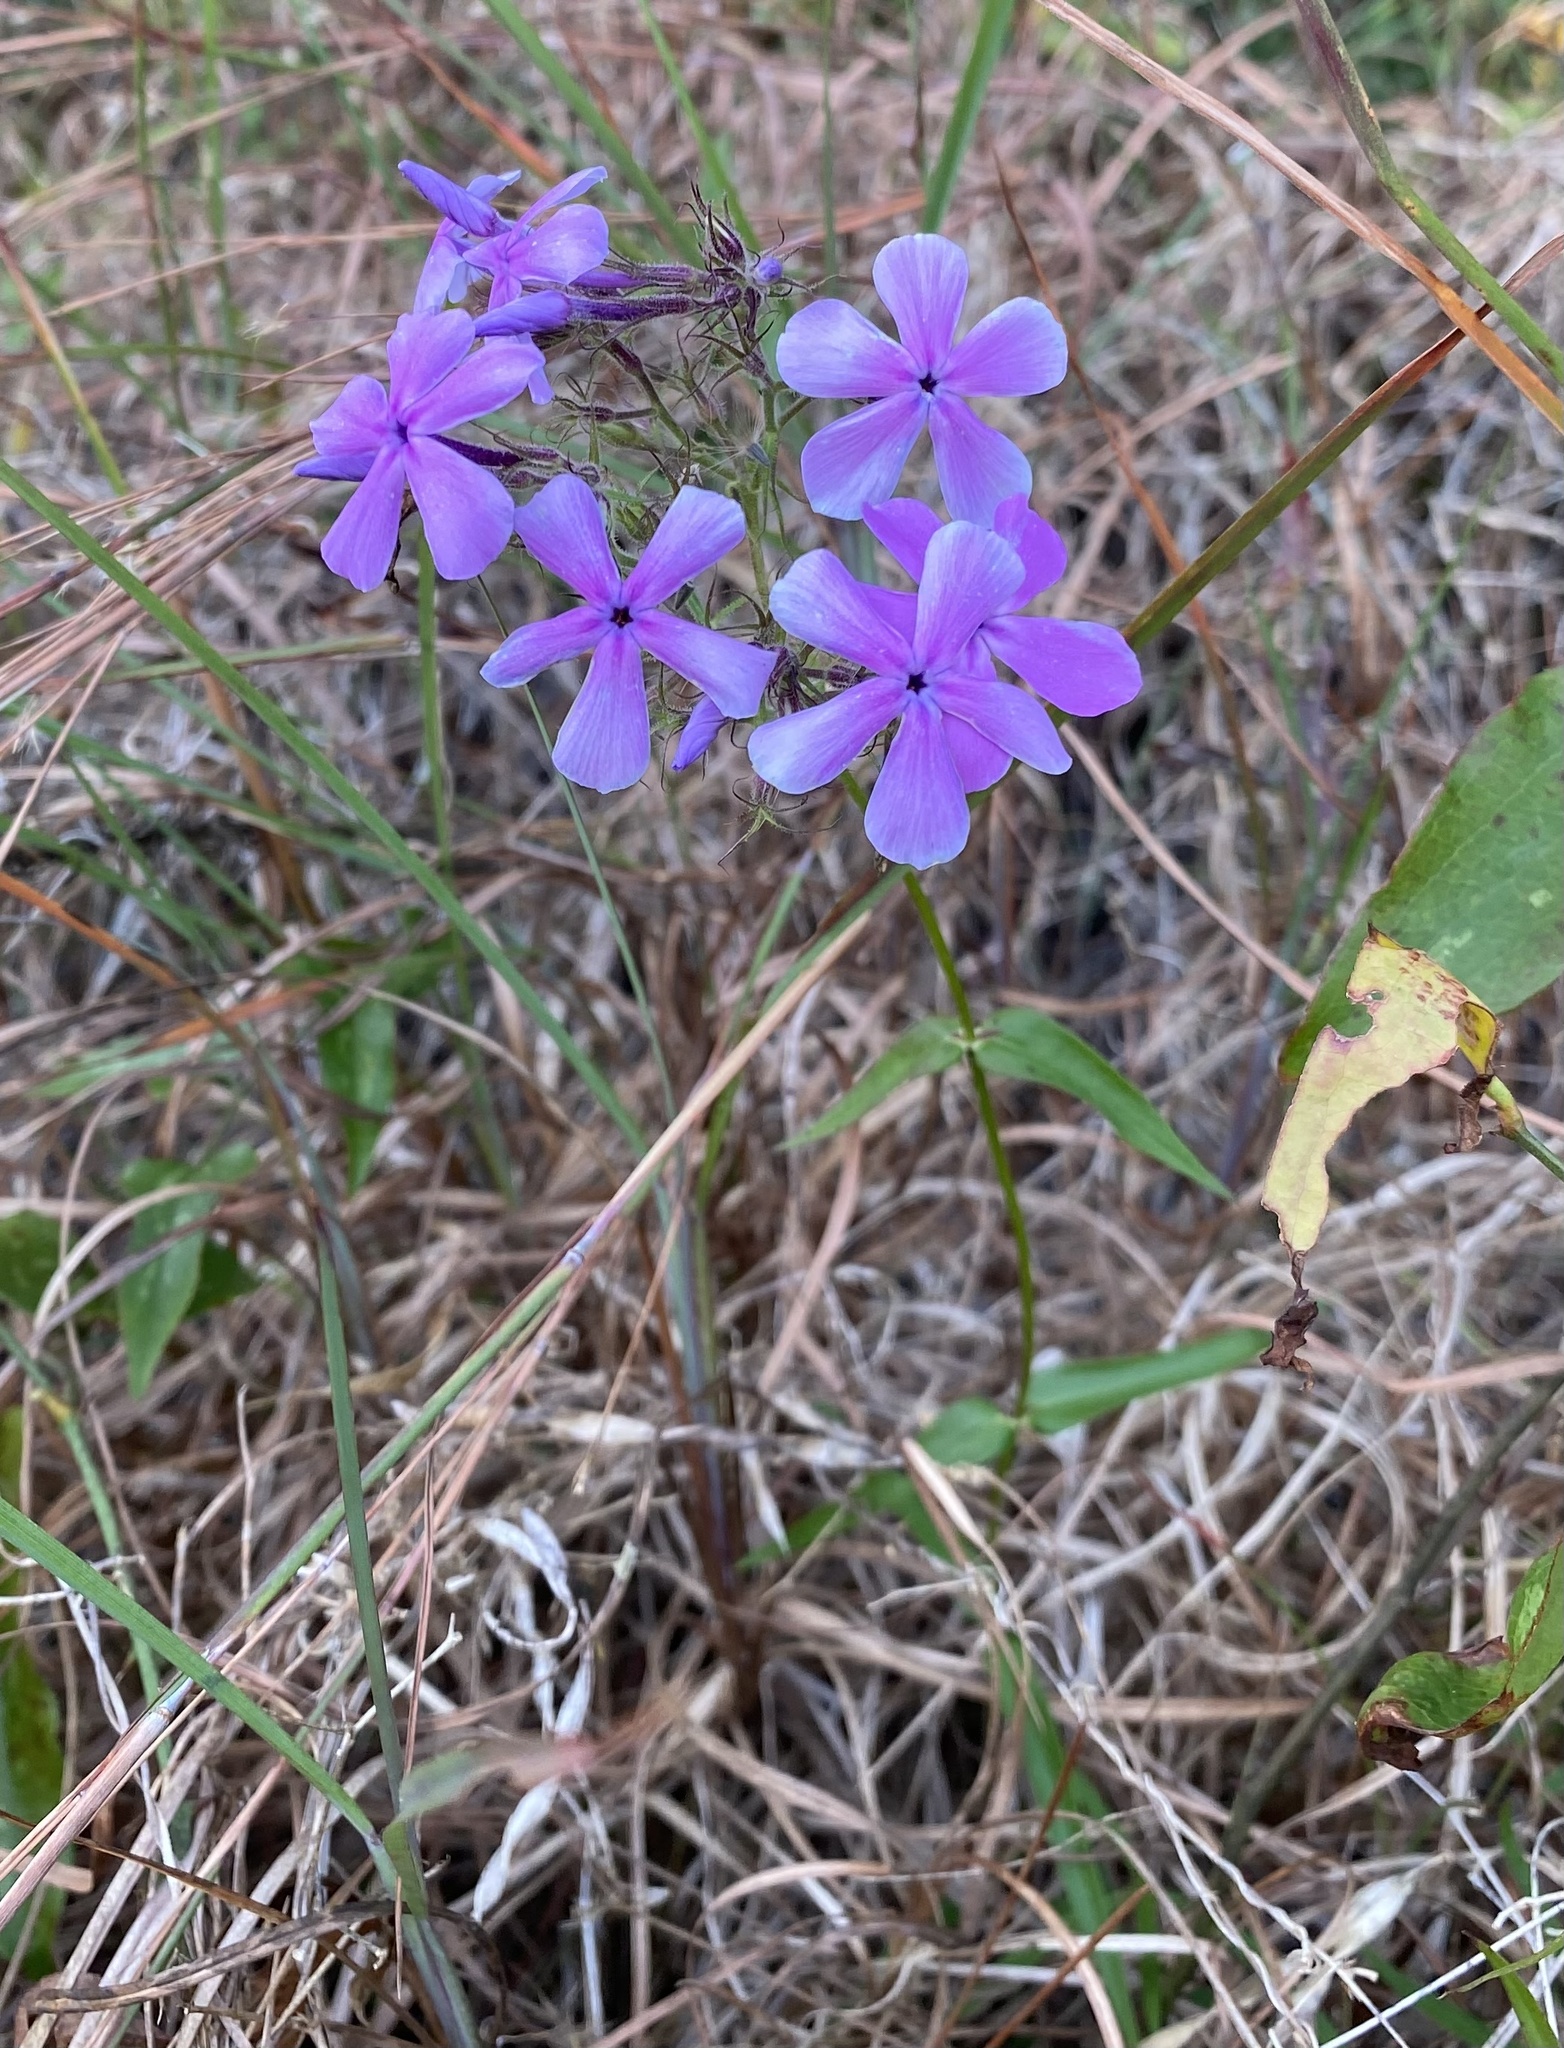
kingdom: Plantae
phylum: Tracheophyta
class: Magnoliopsida
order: Ericales
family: Polemoniaceae
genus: Phlox
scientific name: Phlox pilosa
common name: Prairie phlox
